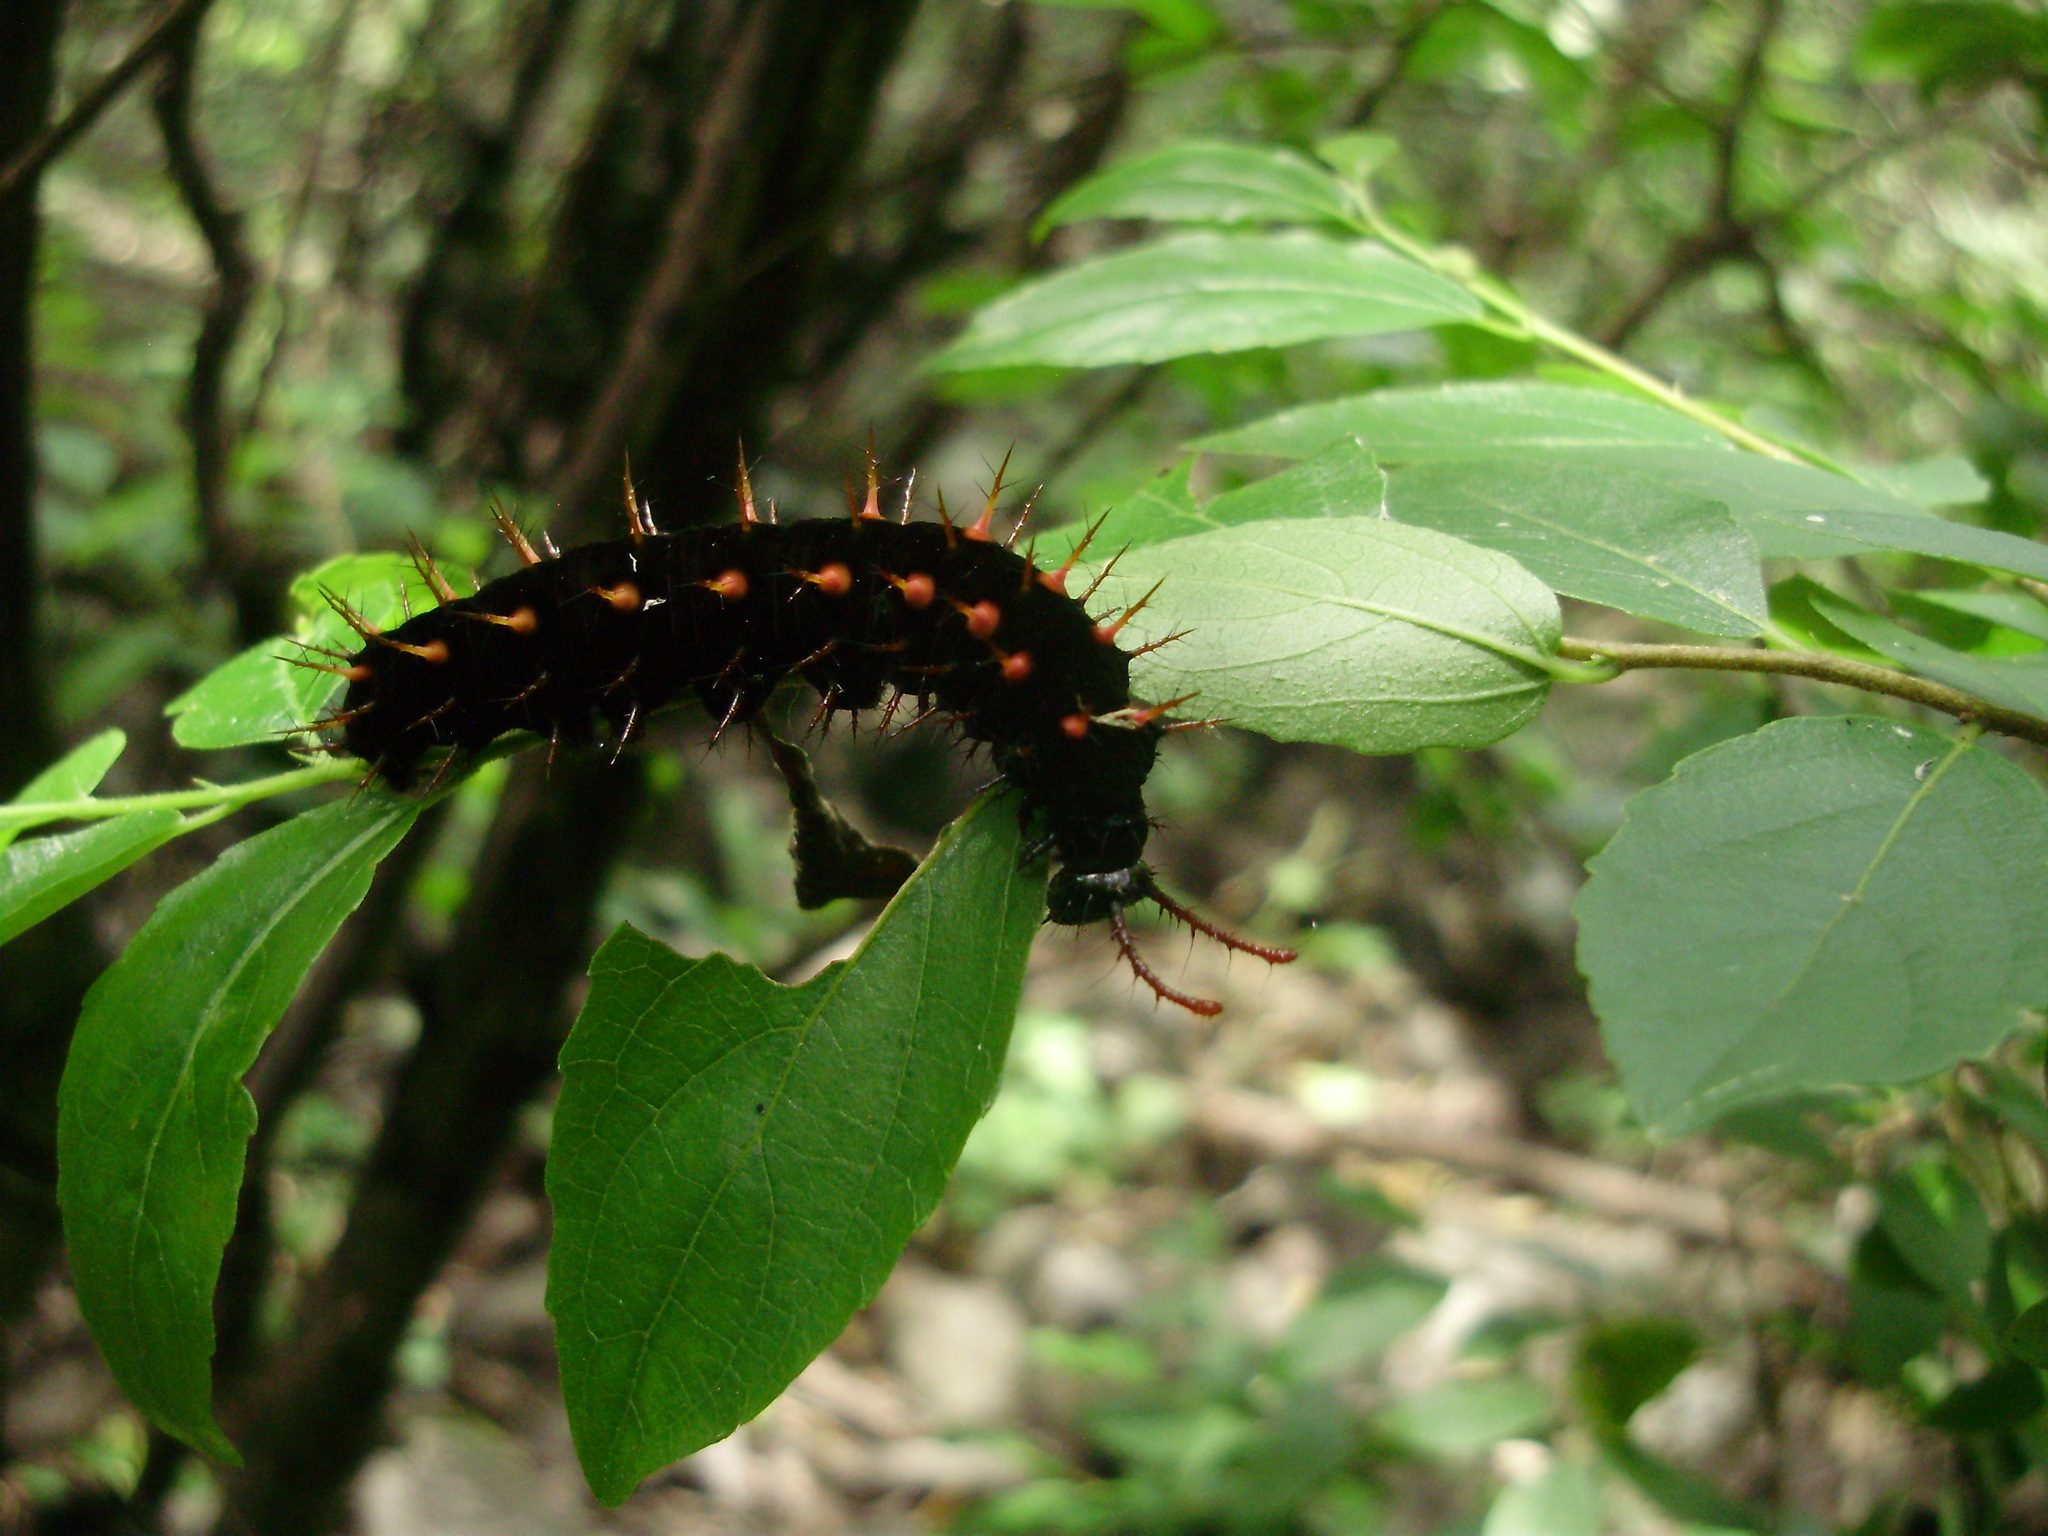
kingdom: Animalia
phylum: Arthropoda
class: Insecta
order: Lepidoptera
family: Nymphalidae
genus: Siproeta
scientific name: Siproeta stelenes
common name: Malachite
